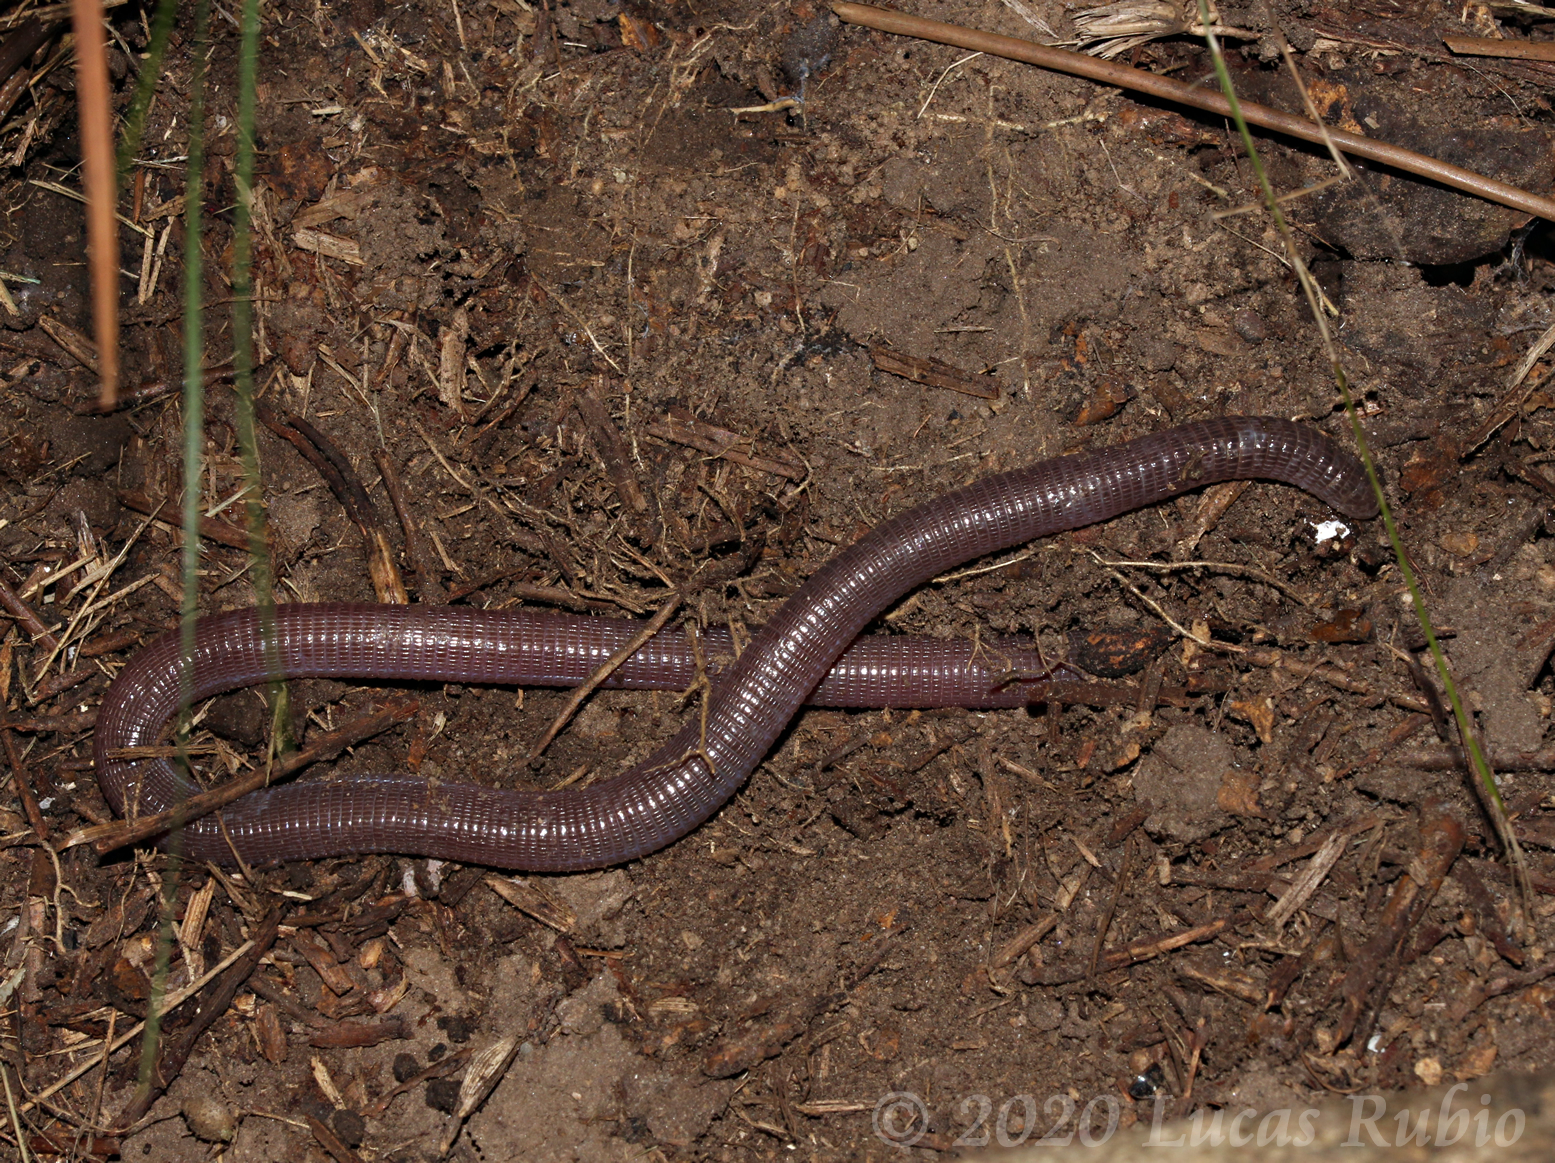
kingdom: Animalia
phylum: Chordata
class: Squamata
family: Amphisbaenidae
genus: Amphisbaena
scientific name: Amphisbaena kingii
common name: King's worm lizard
